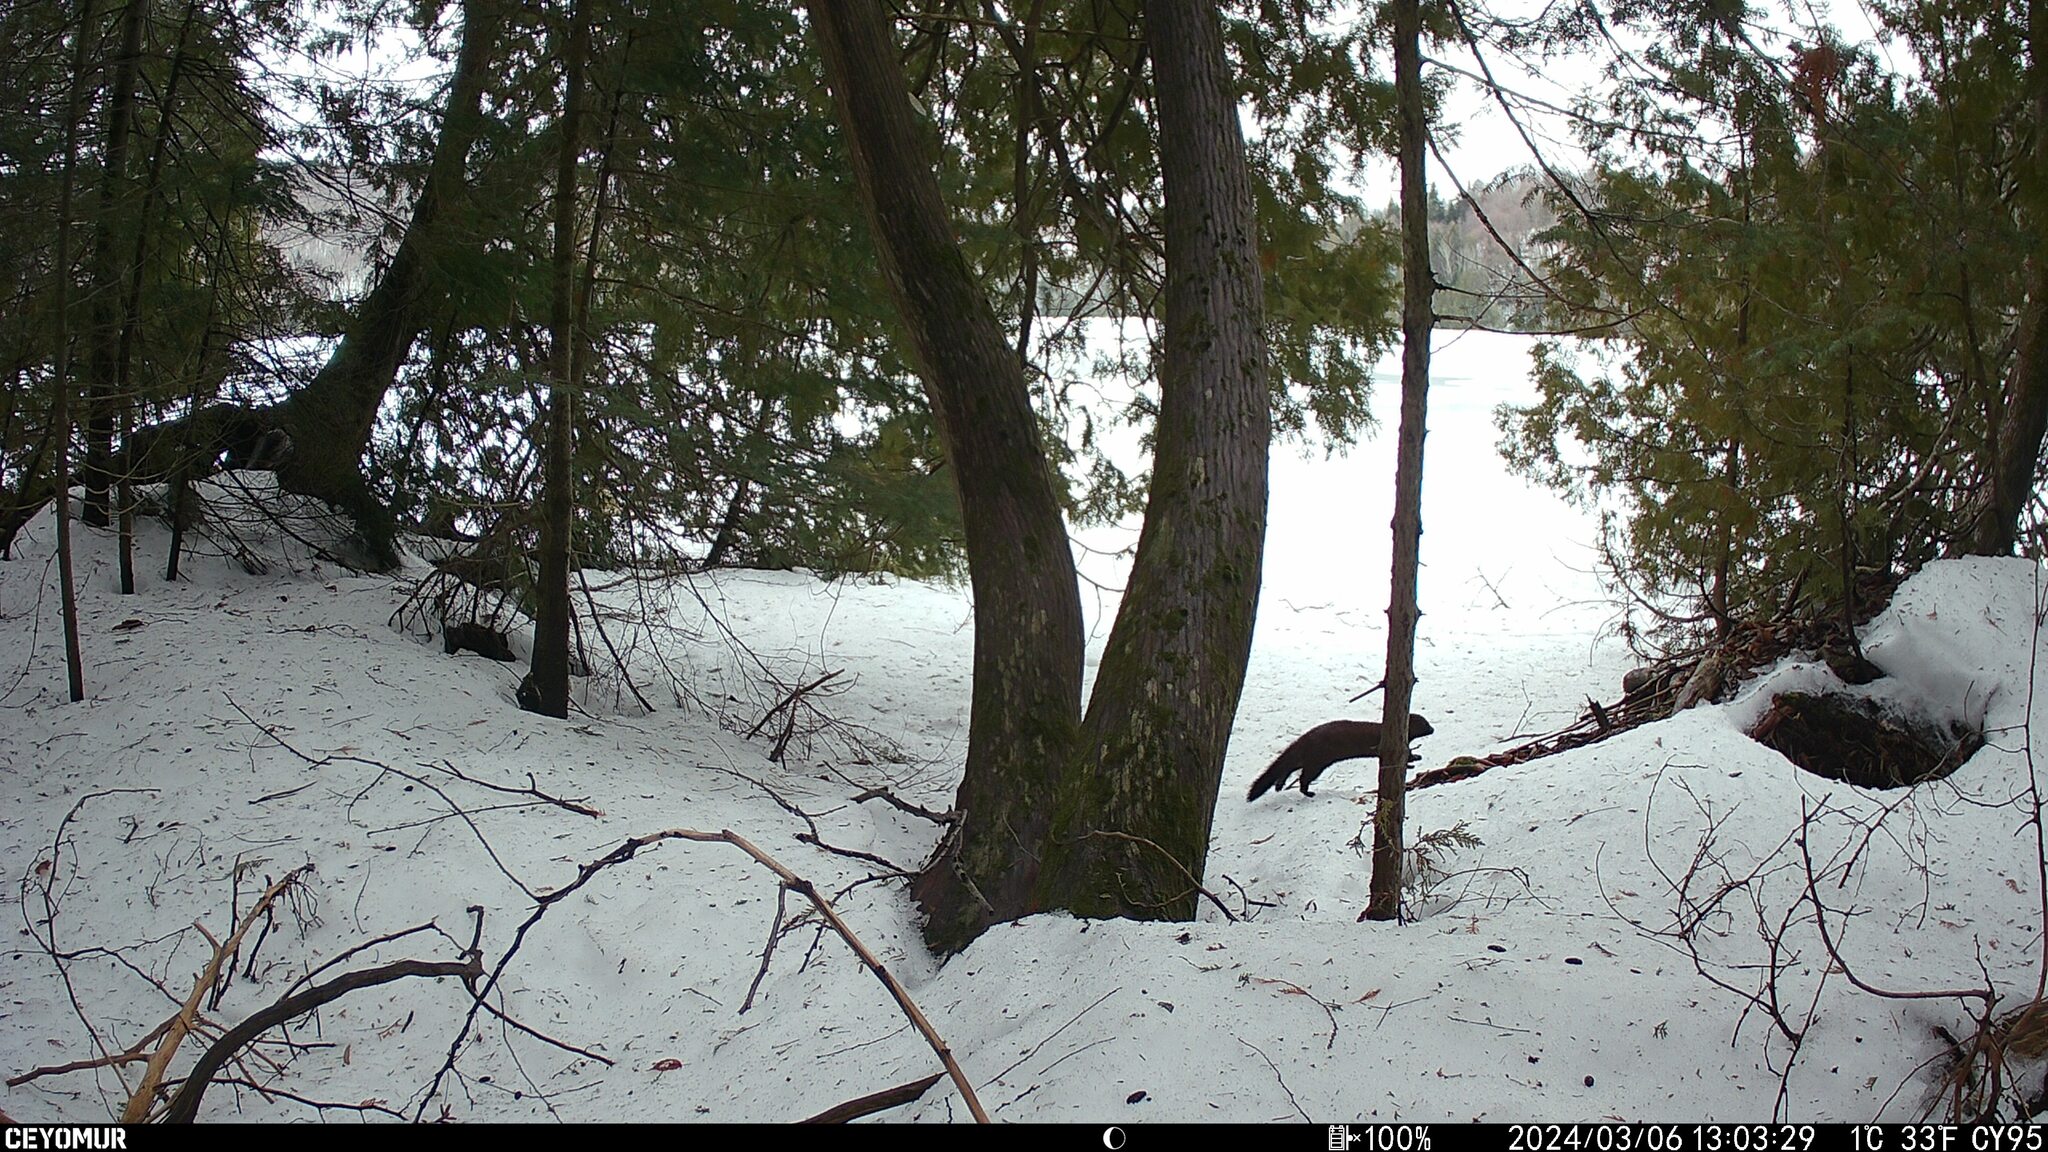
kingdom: Animalia
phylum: Chordata
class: Mammalia
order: Carnivora
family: Mustelidae
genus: Mustela
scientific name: Mustela
